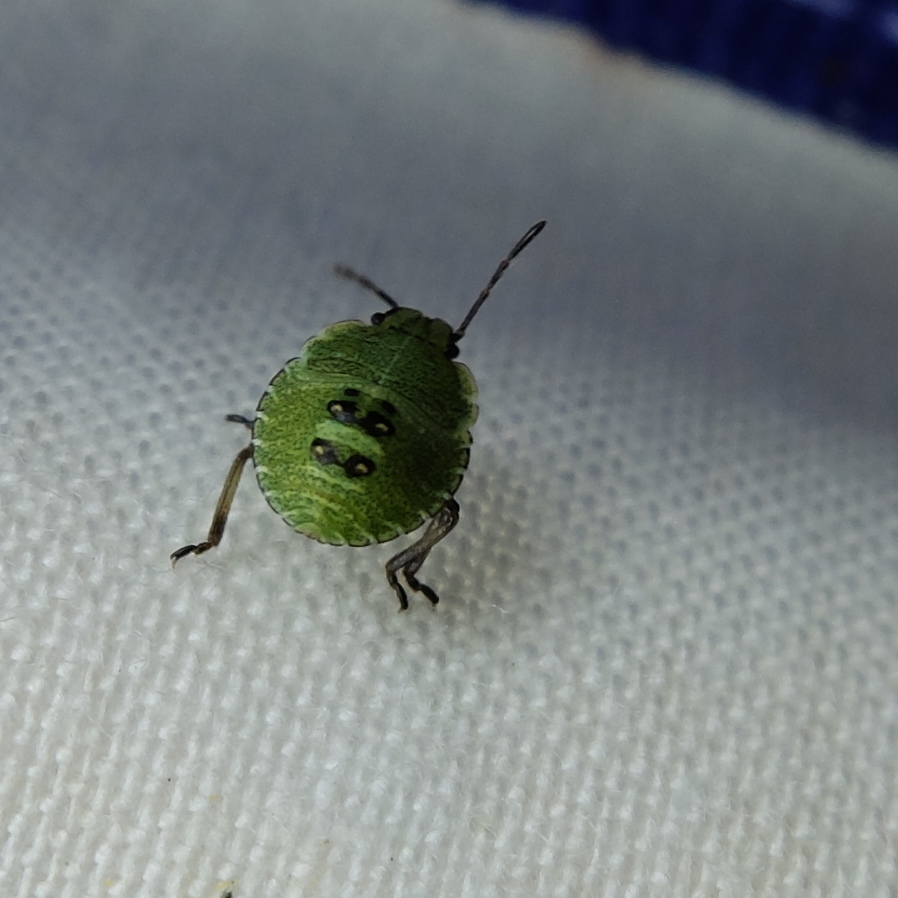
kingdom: Animalia
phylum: Arthropoda
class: Insecta
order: Hemiptera
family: Pentatomidae
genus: Palomena
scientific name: Palomena prasina
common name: Green shieldbug
